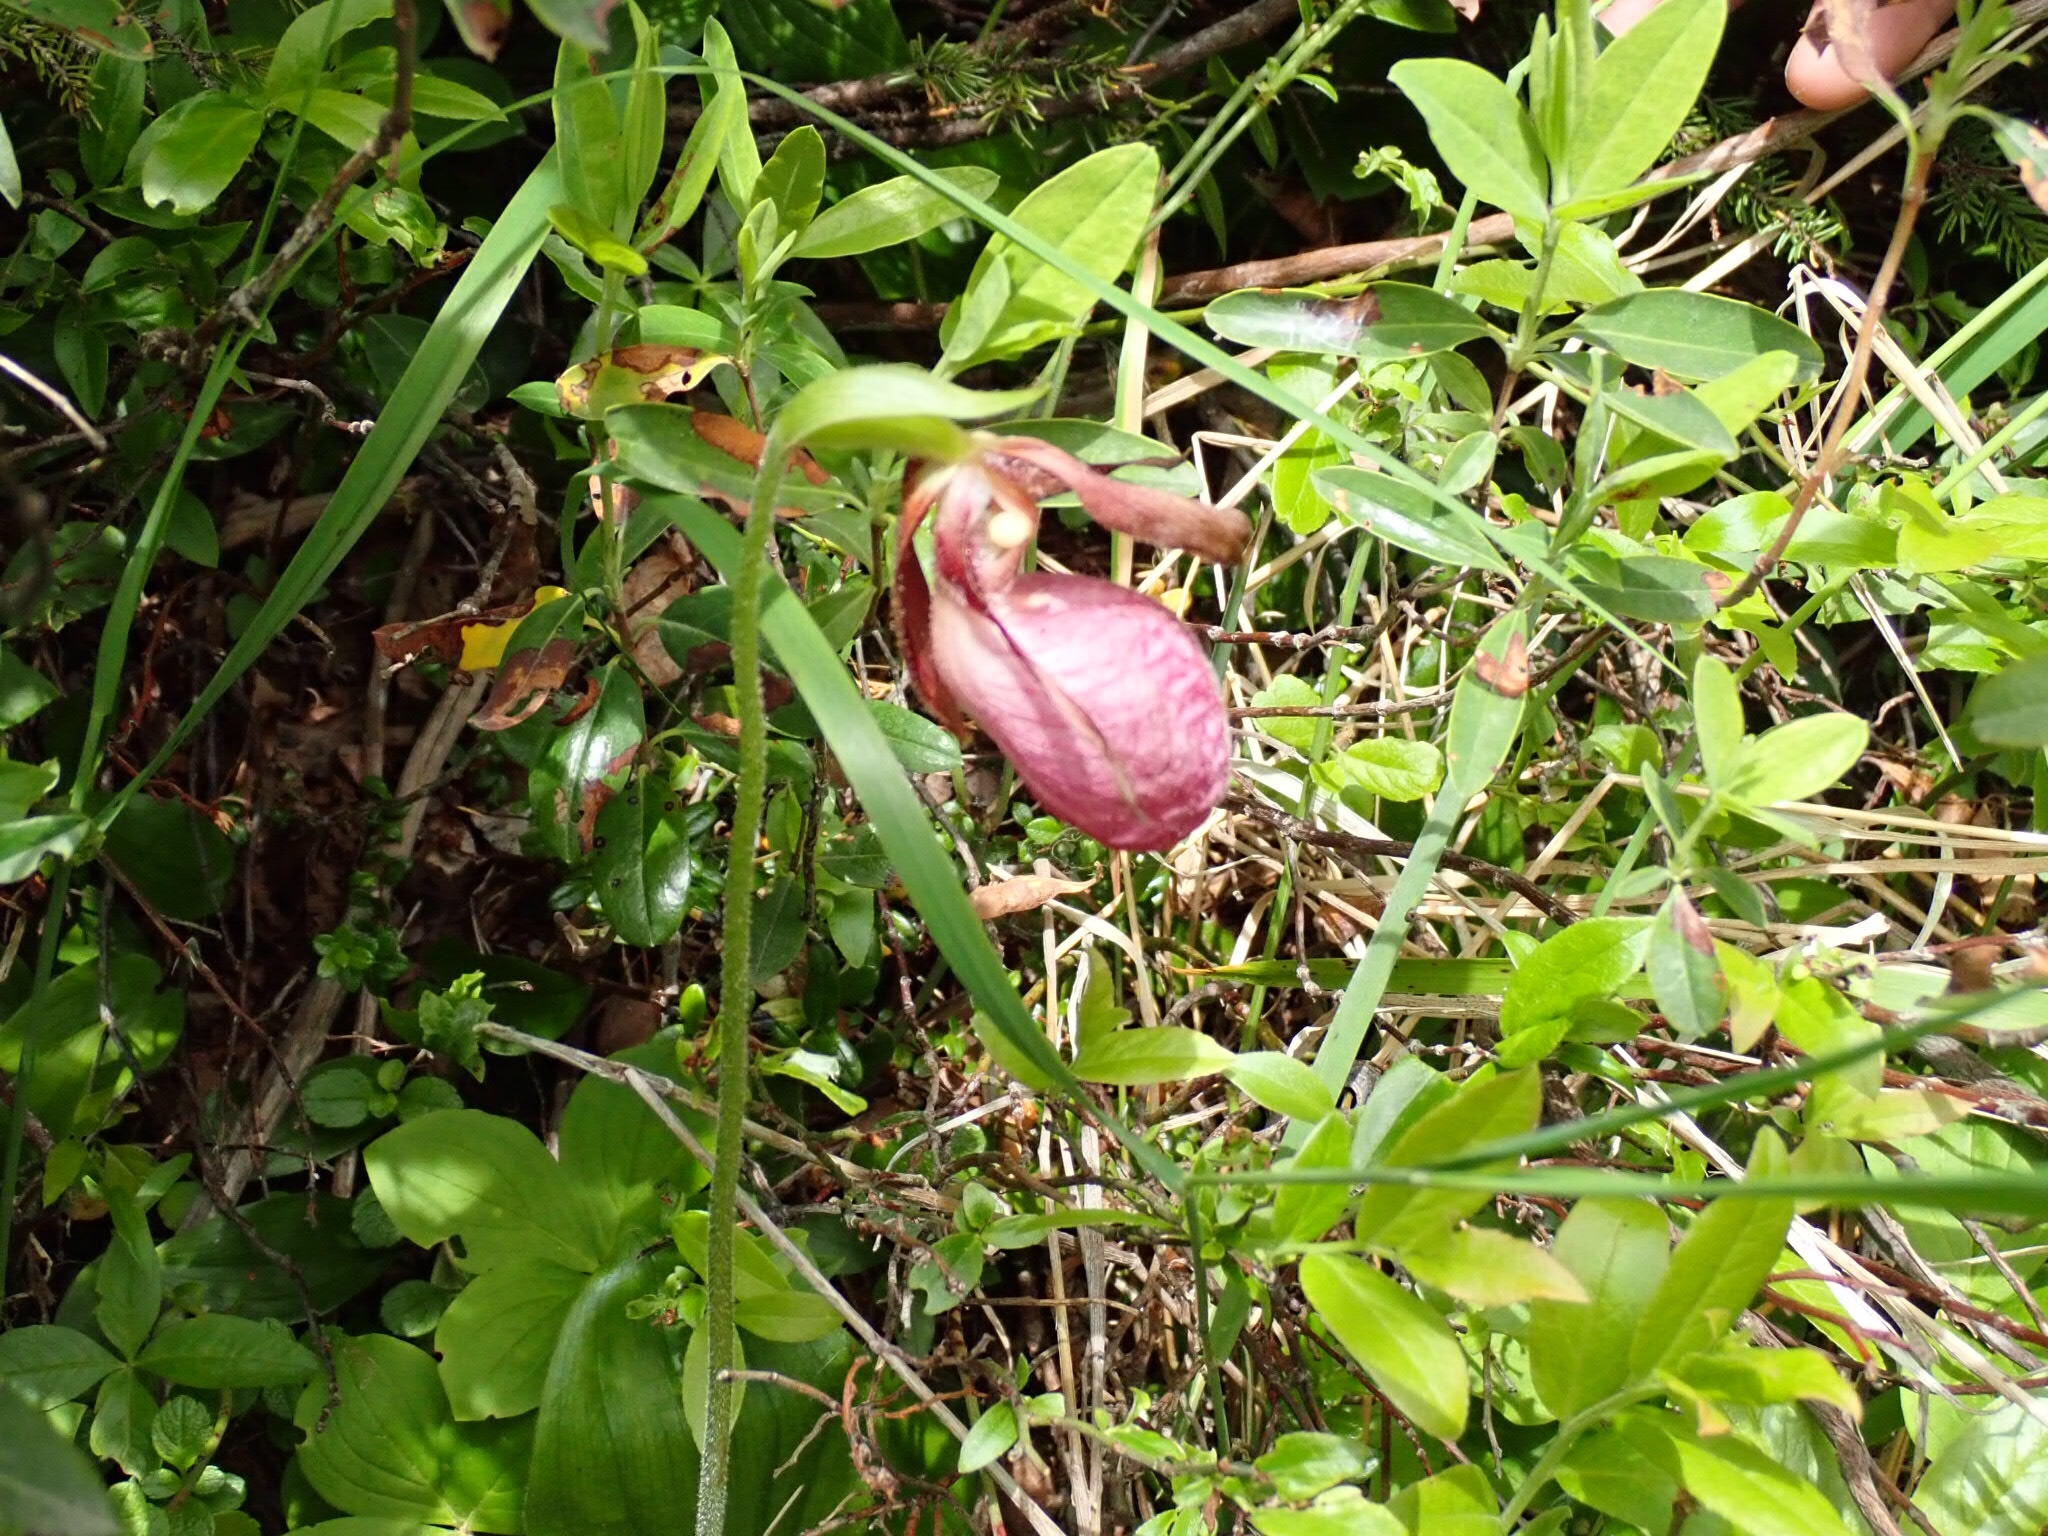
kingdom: Plantae
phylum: Tracheophyta
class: Liliopsida
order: Asparagales
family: Orchidaceae
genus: Cypripedium
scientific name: Cypripedium acaule
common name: Pink lady's-slipper
